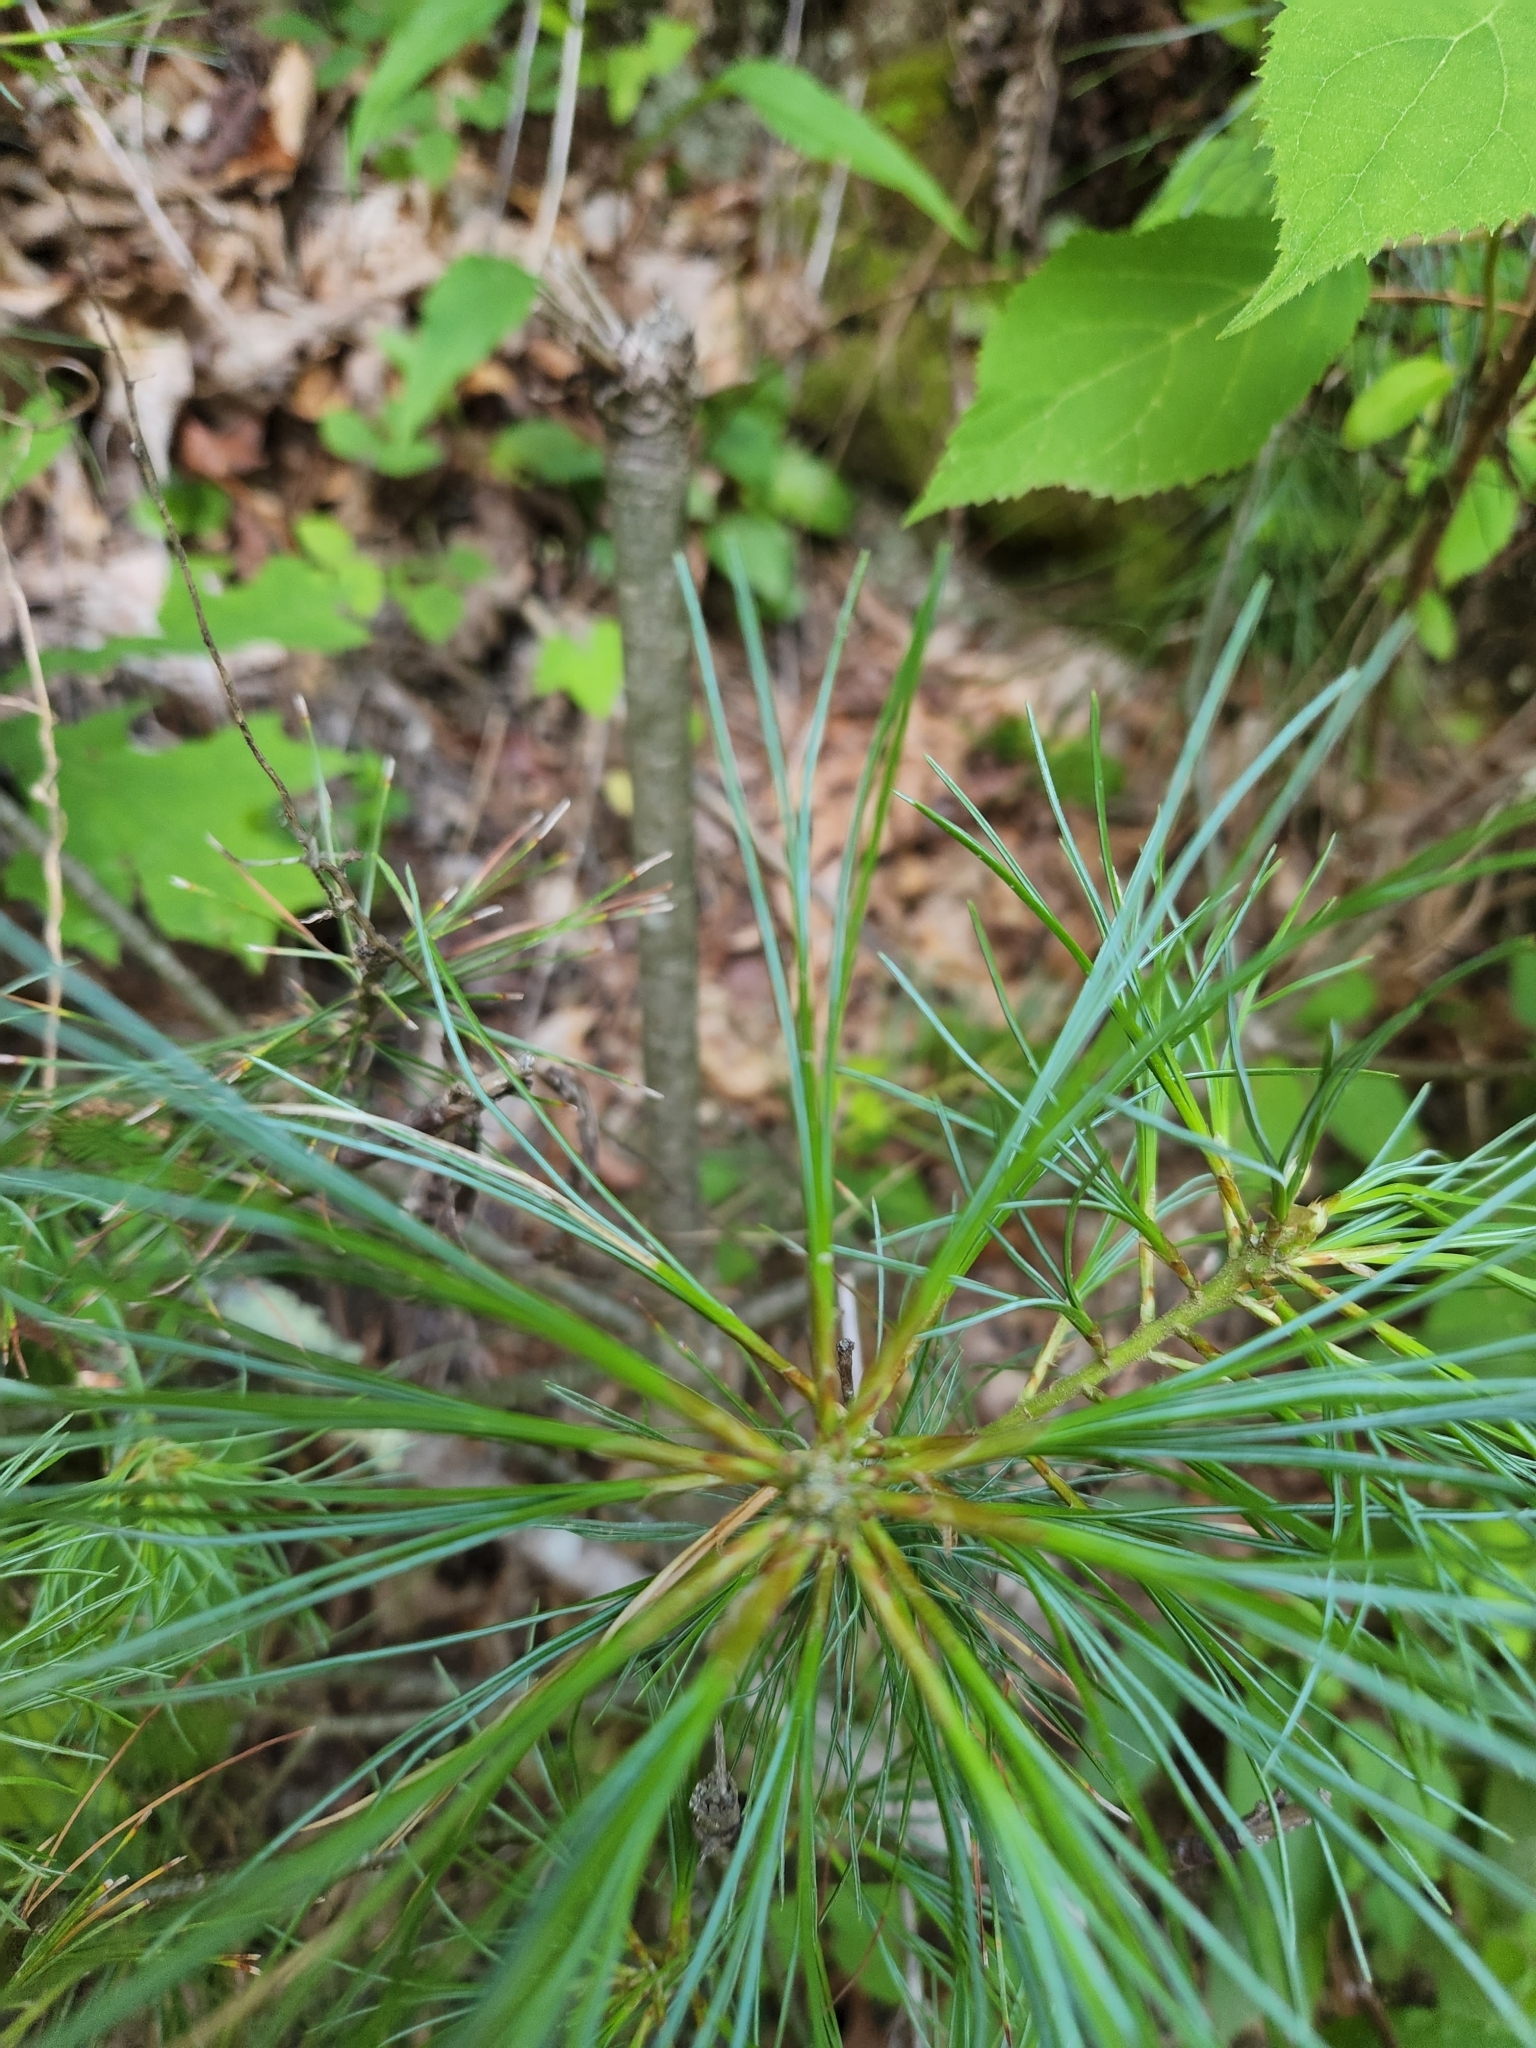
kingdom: Plantae
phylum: Tracheophyta
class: Pinopsida
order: Pinales
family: Pinaceae
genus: Pinus
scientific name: Pinus strobus
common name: Weymouth pine
